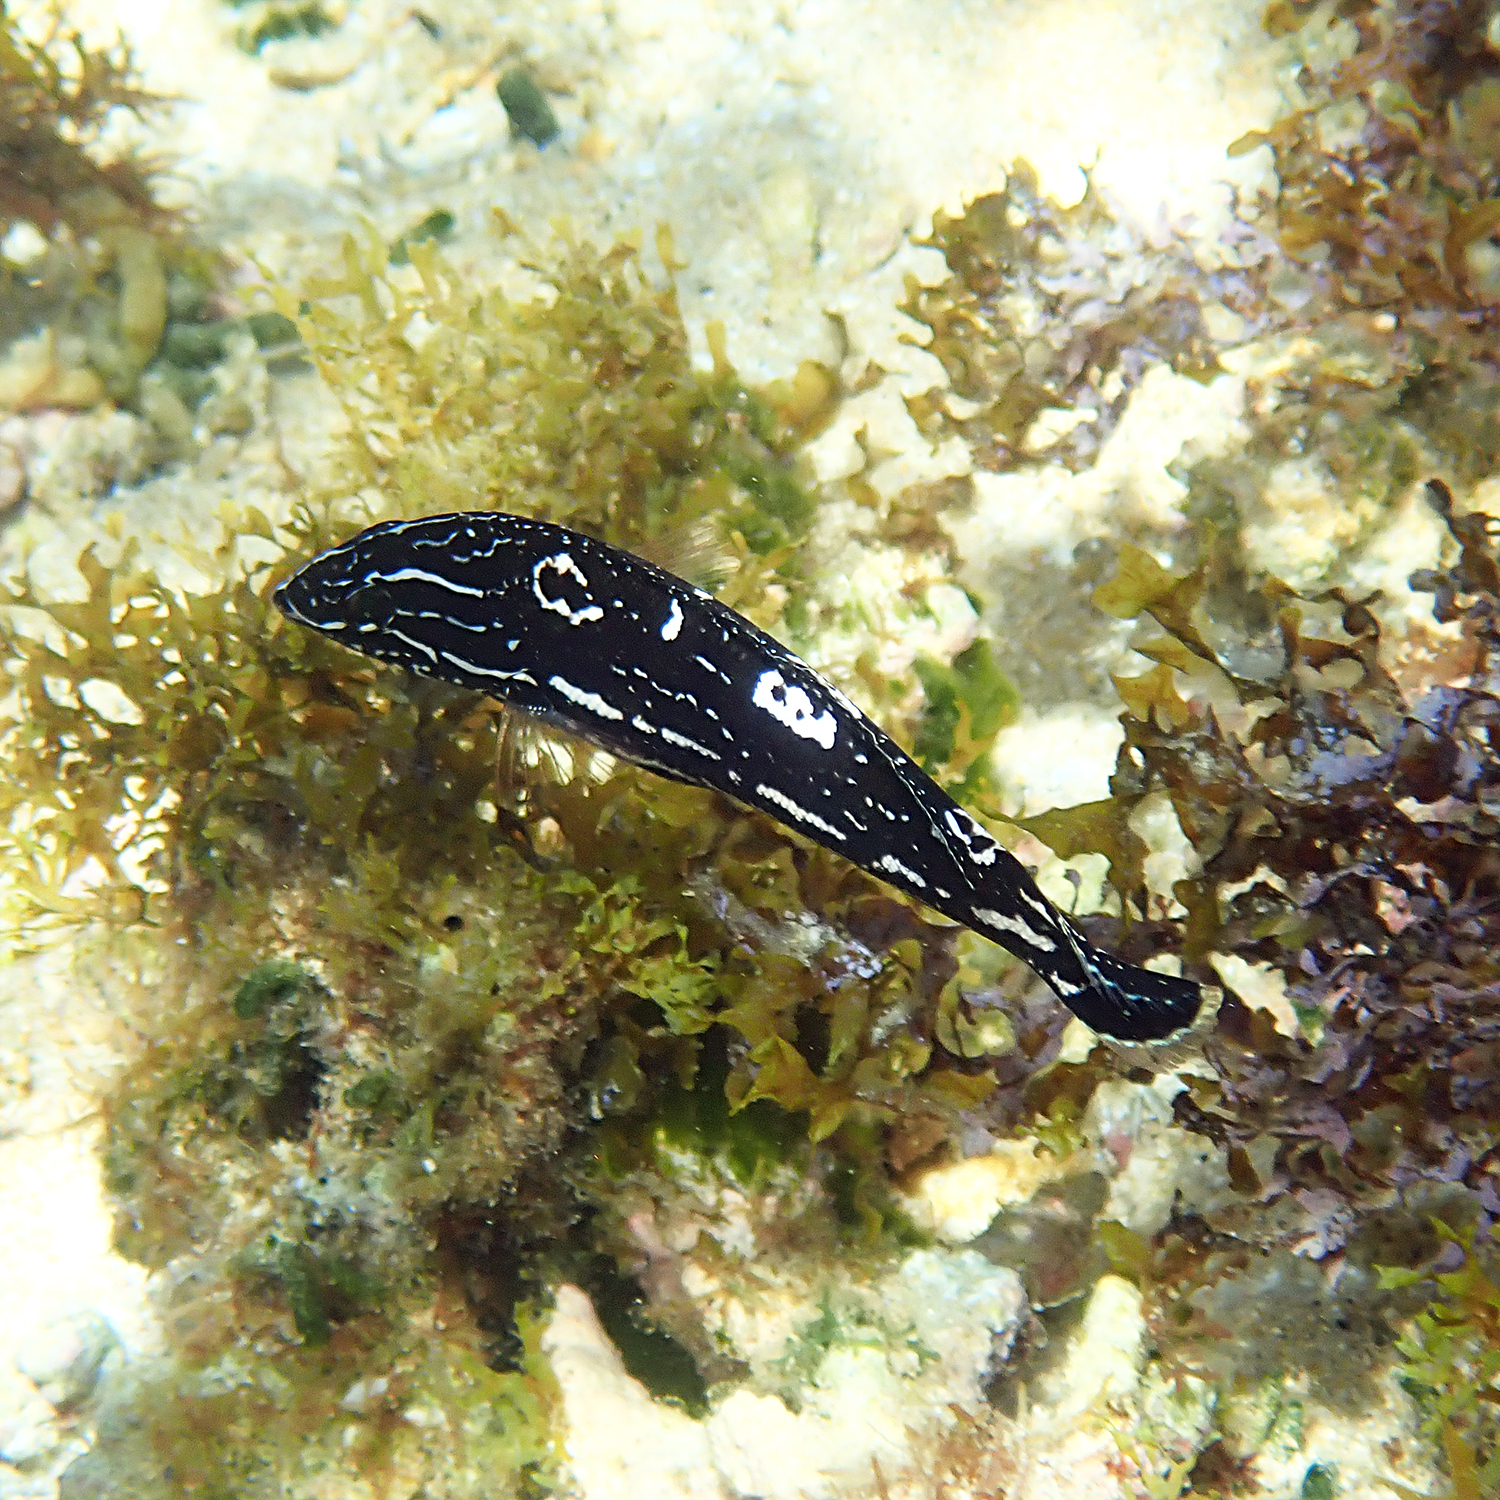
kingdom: Animalia
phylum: Chordata
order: Perciformes
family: Labridae
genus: Coris
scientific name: Coris bulbifrons
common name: Doubleheader
